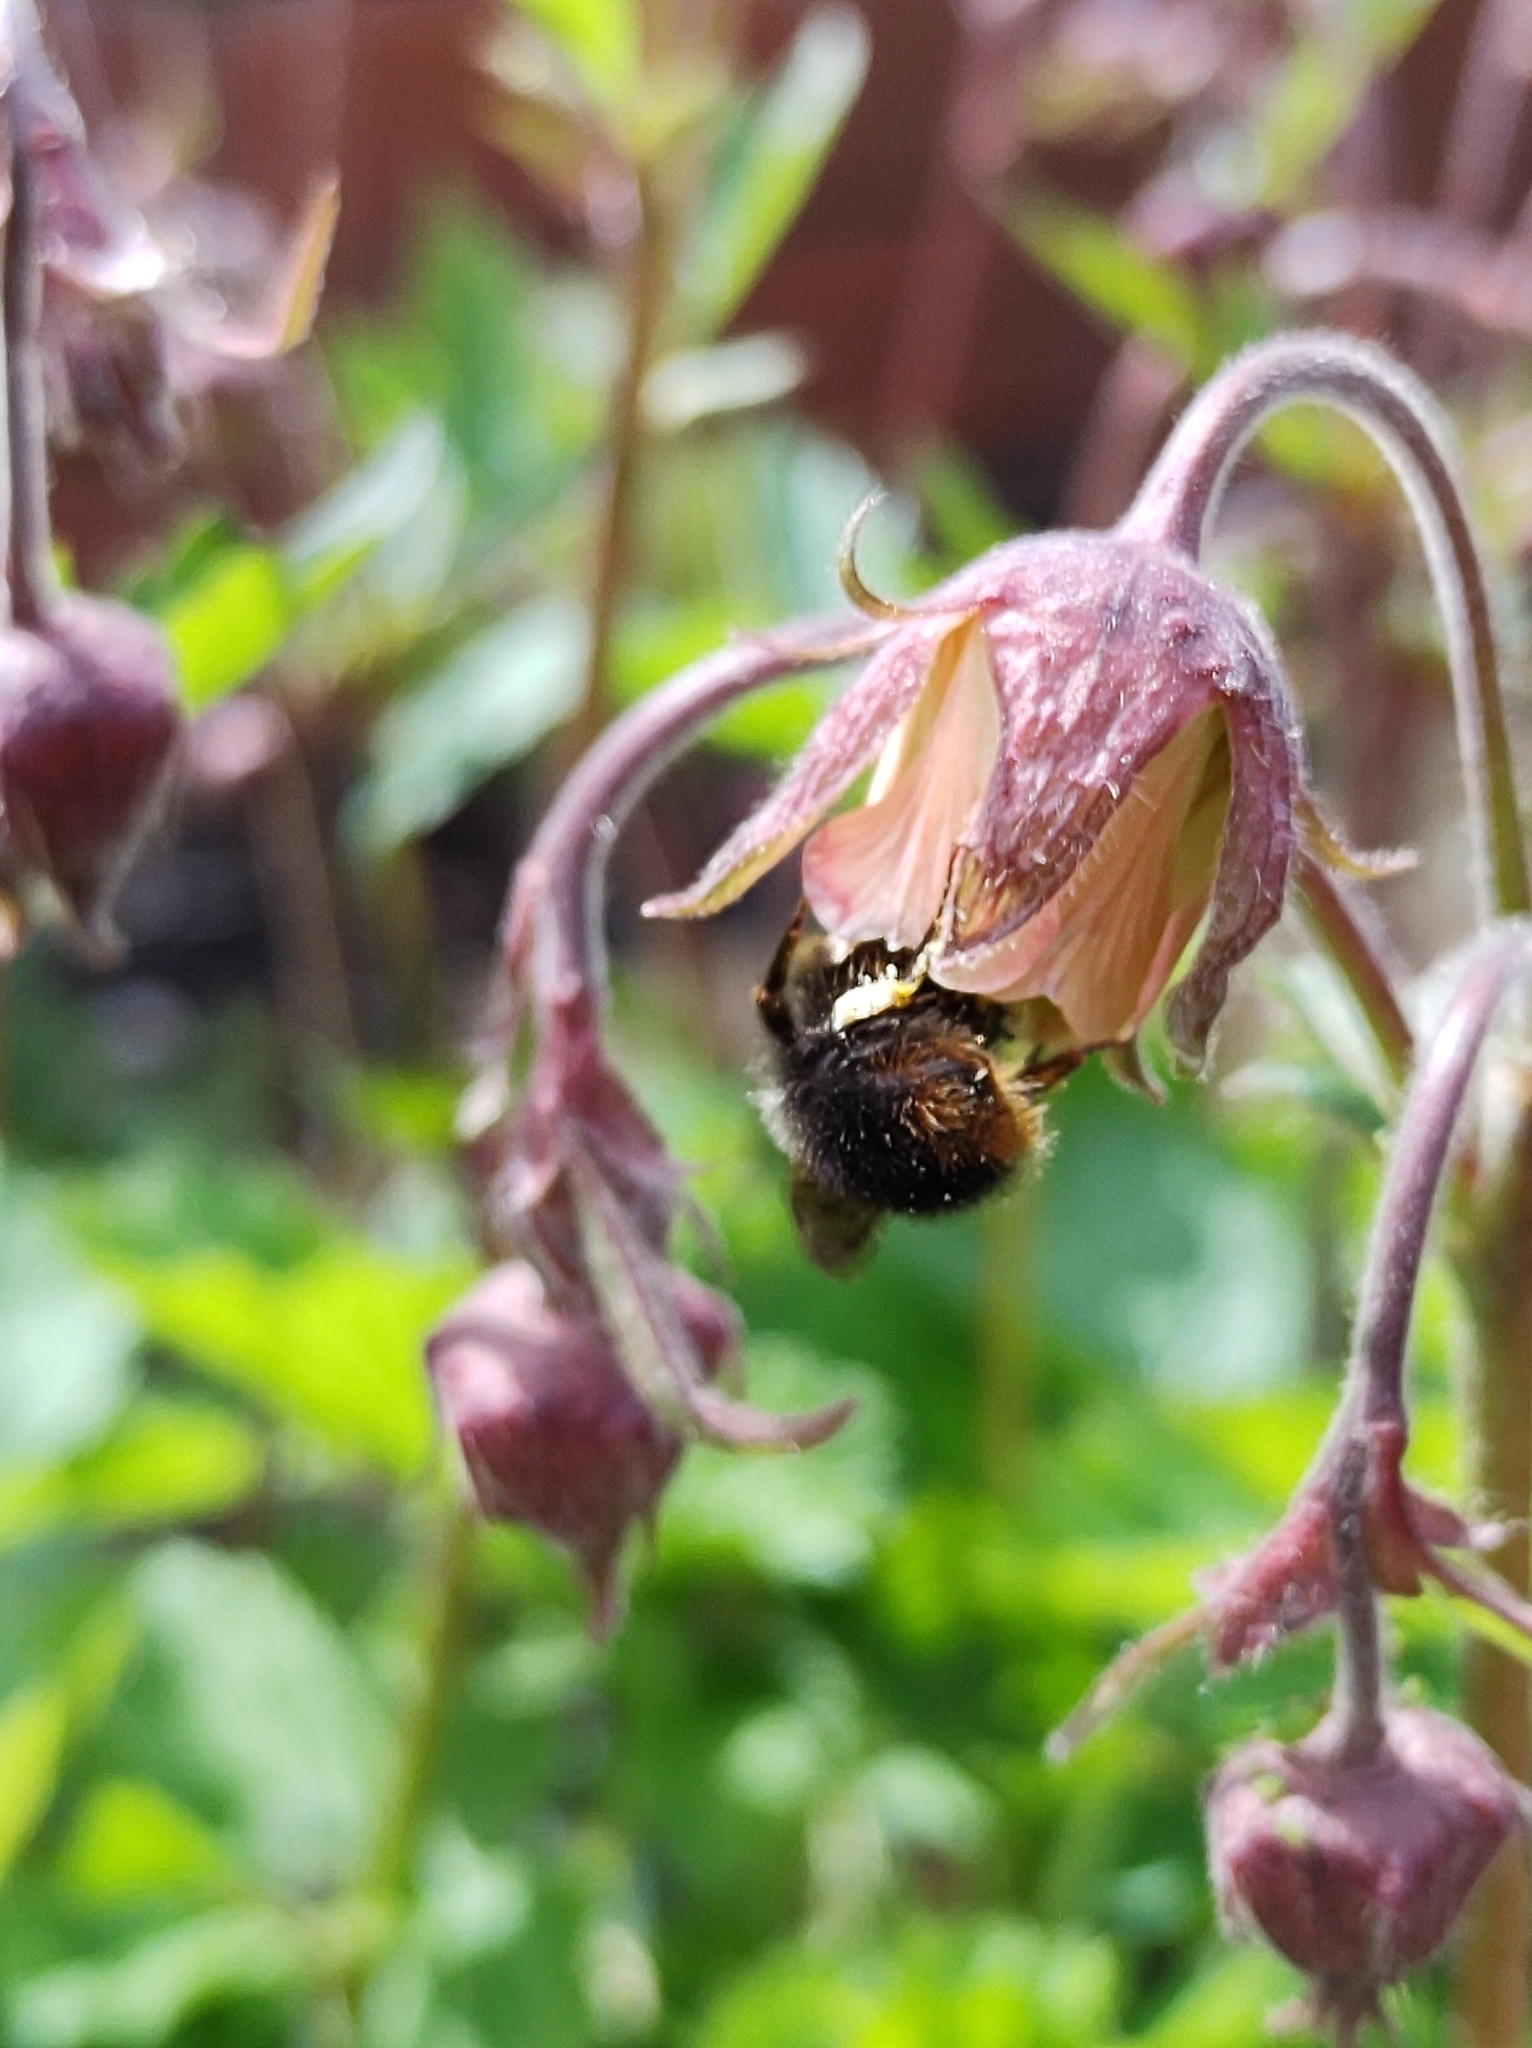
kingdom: Animalia
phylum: Arthropoda
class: Insecta
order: Hymenoptera
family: Apidae
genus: Bombus
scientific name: Bombus pratorum
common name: Early humble-bee
